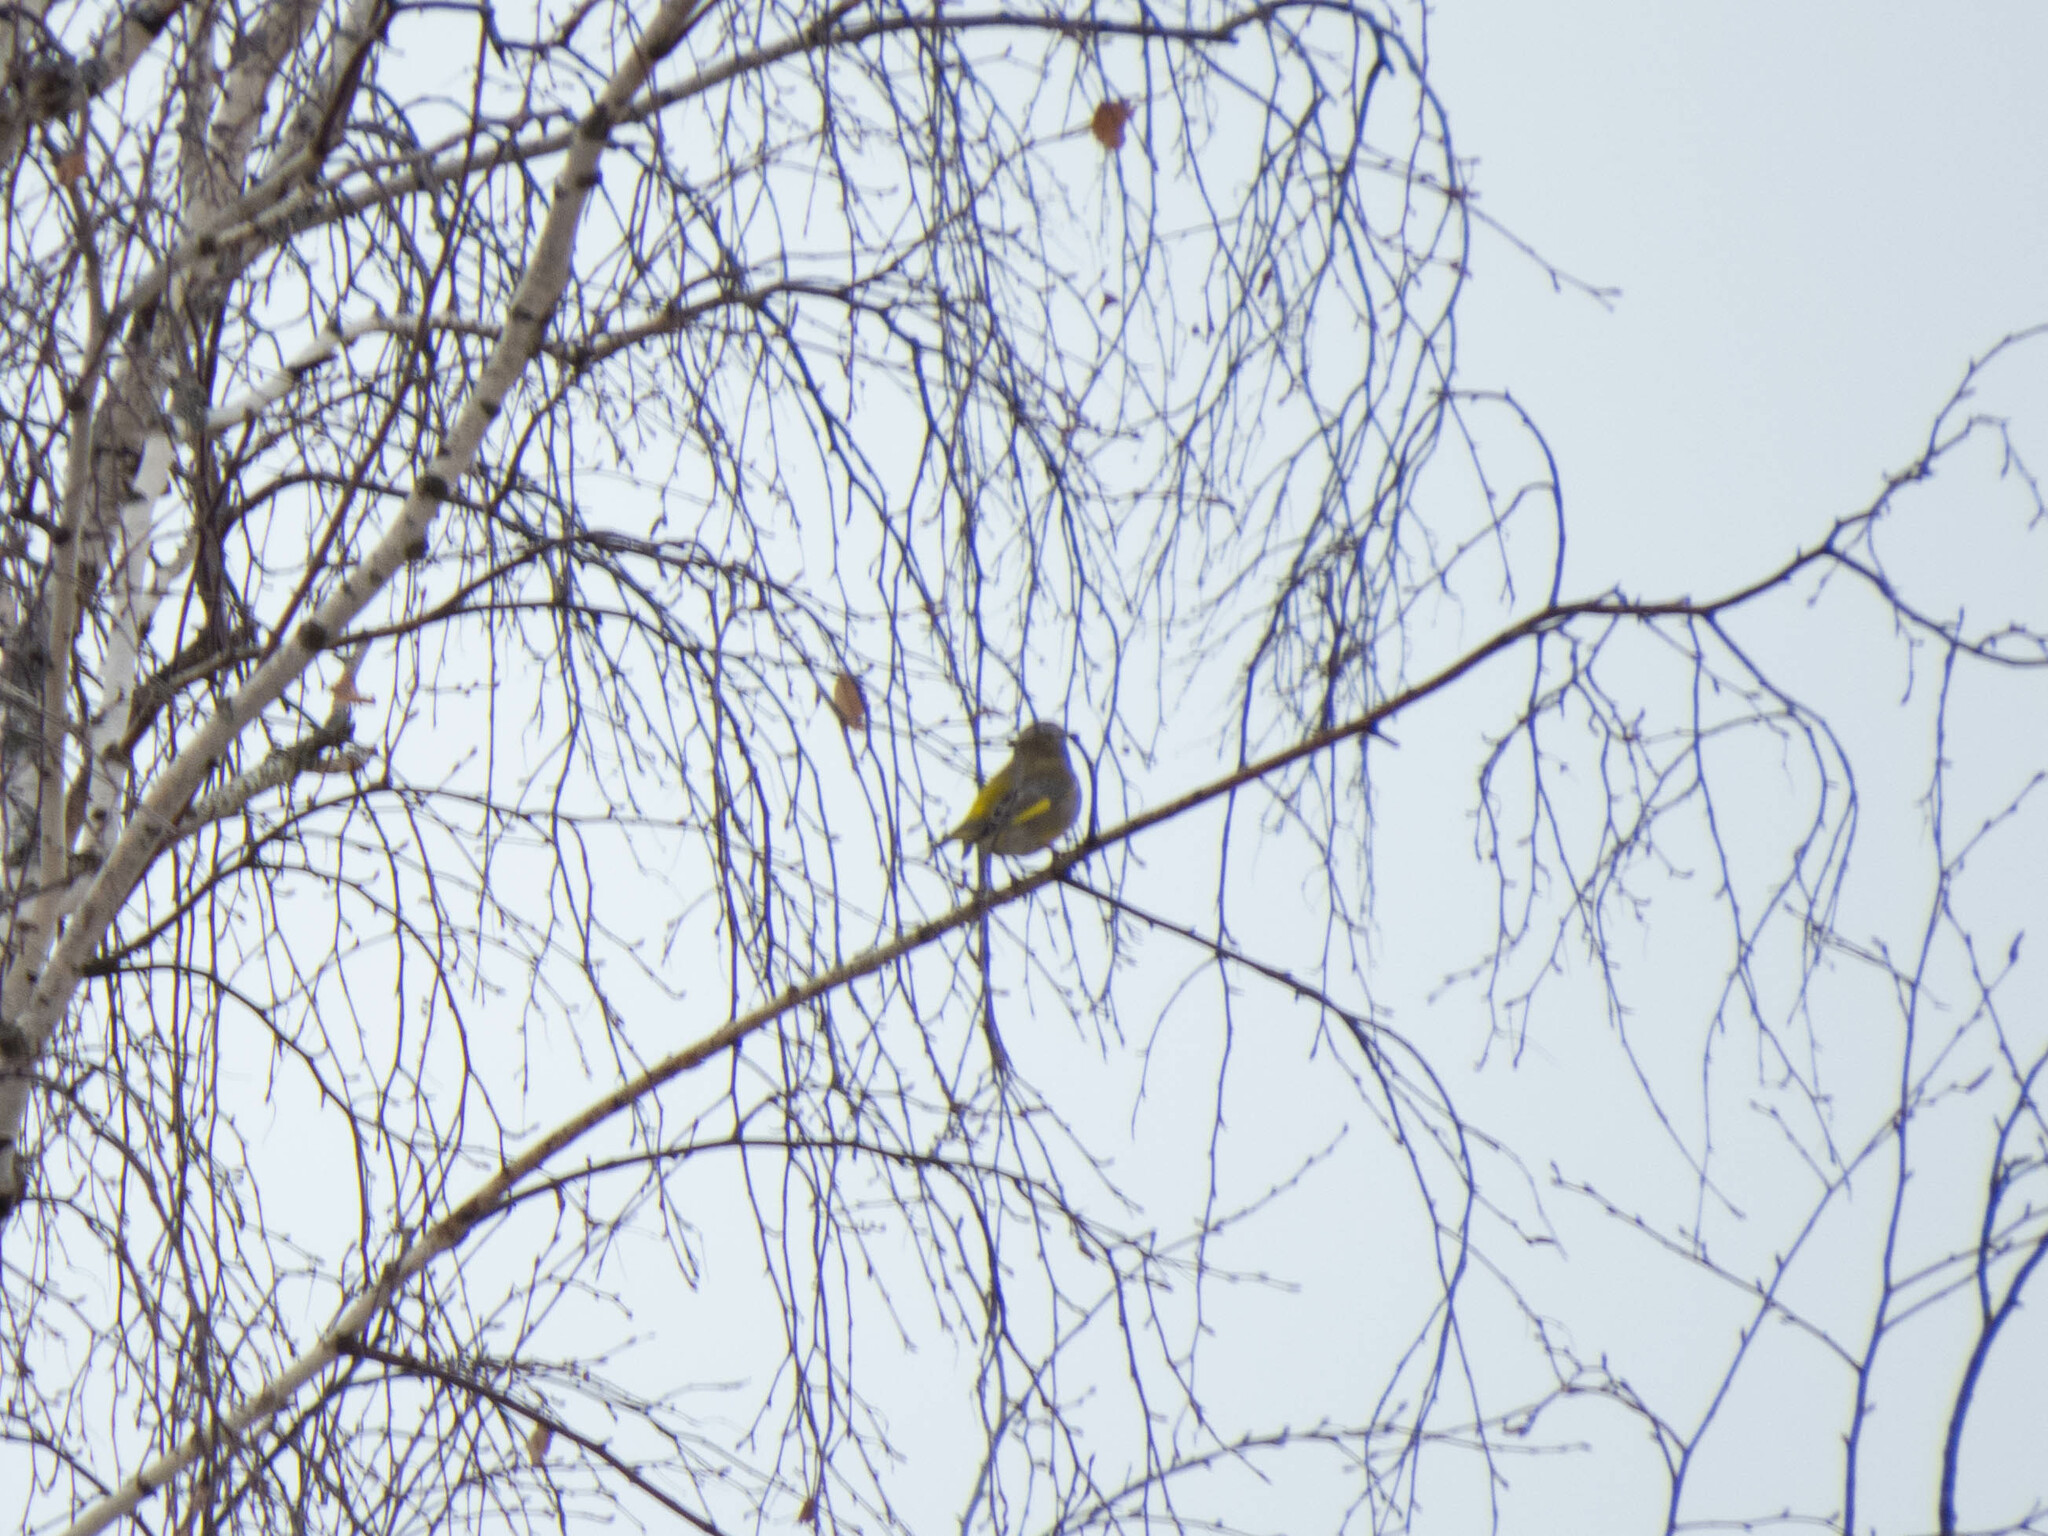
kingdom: Plantae
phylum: Tracheophyta
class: Liliopsida
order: Poales
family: Poaceae
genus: Chloris
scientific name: Chloris chloris
